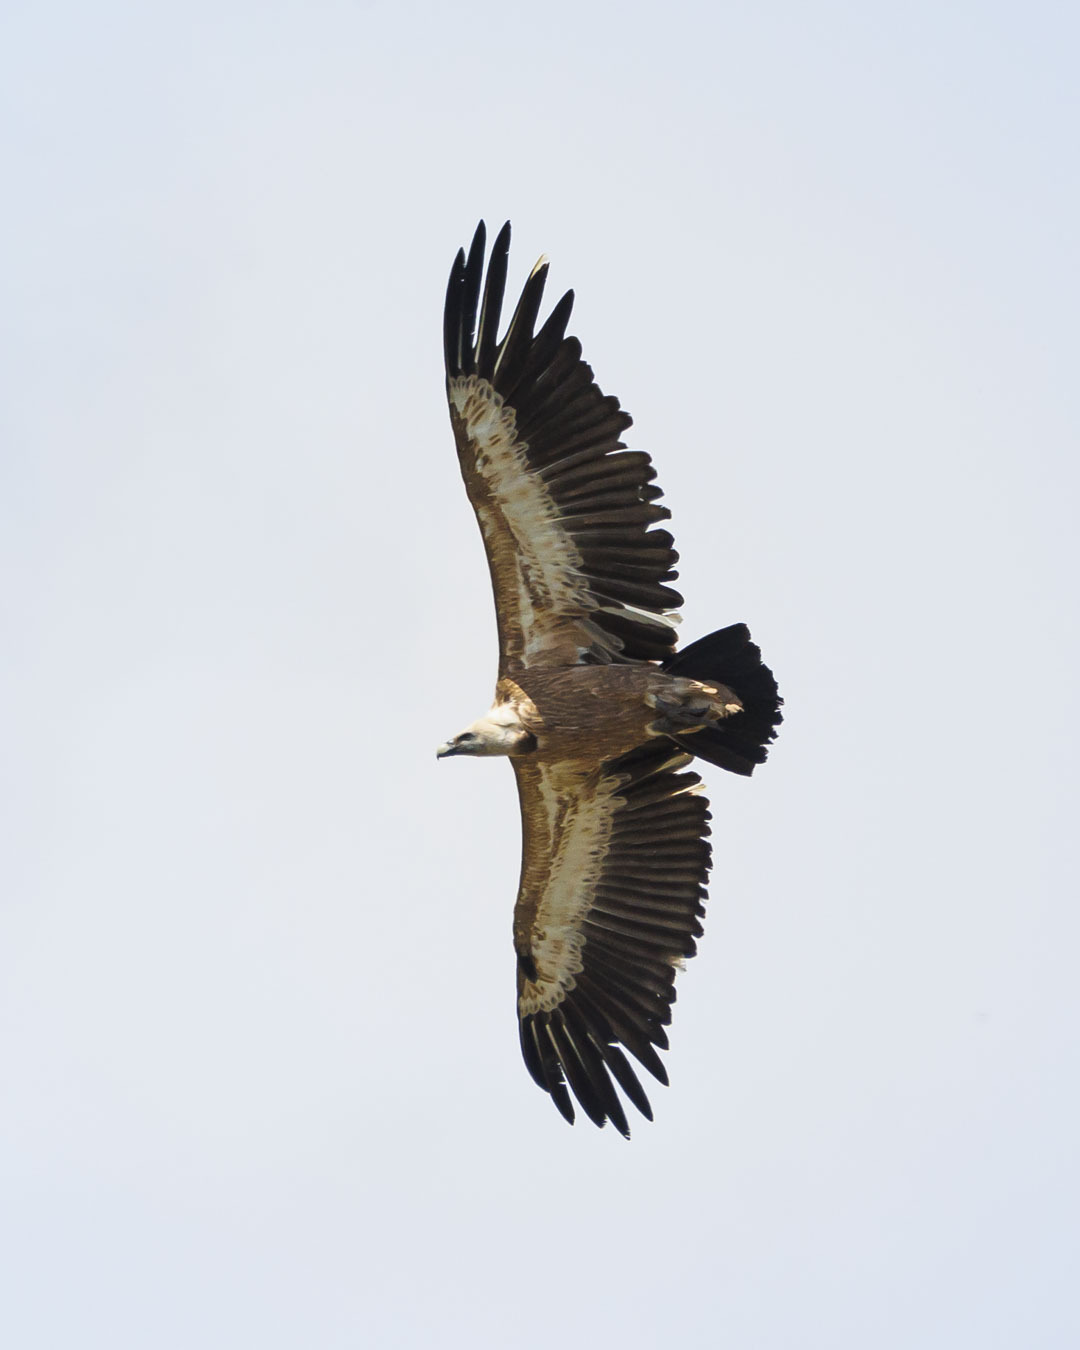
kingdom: Animalia
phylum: Chordata
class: Aves
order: Accipitriformes
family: Accipitridae
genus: Gyps
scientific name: Gyps fulvus
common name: Griffon vulture
